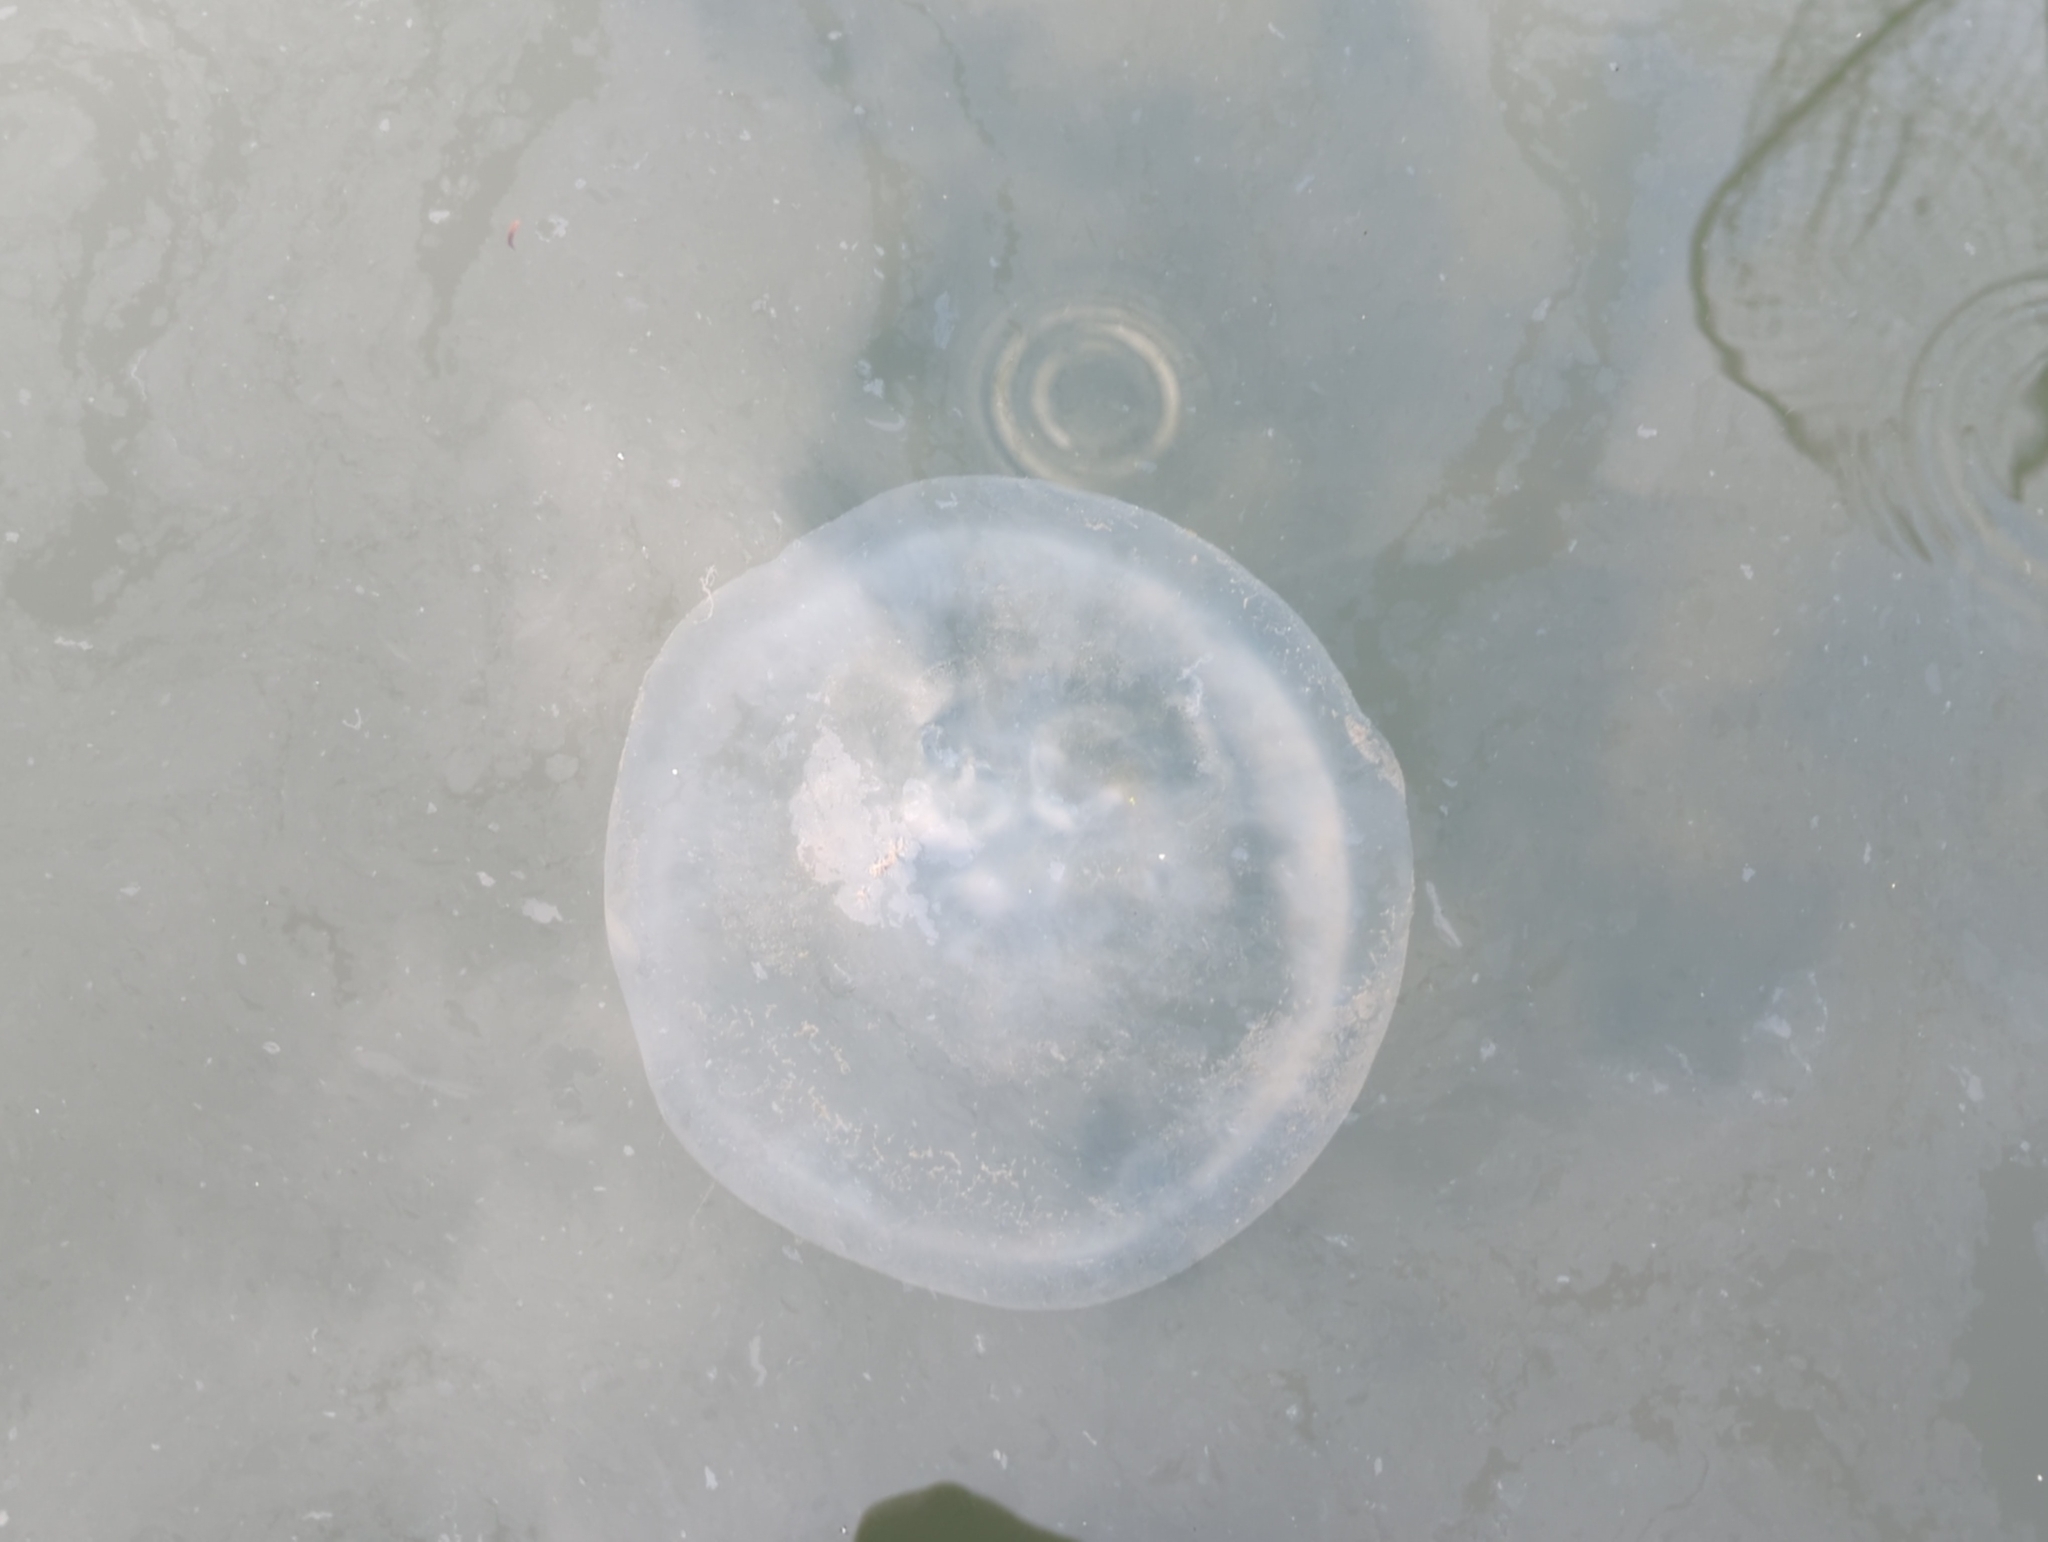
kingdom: Animalia
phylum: Cnidaria
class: Scyphozoa
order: Semaeostomeae
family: Ulmaridae
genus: Aurelia
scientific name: Aurelia labiata
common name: Pacific moon jelly
